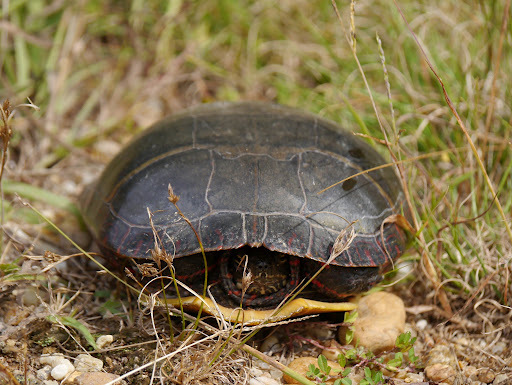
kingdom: Animalia
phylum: Chordata
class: Testudines
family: Emydidae
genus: Chrysemys
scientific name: Chrysemys picta
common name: Painted turtle
